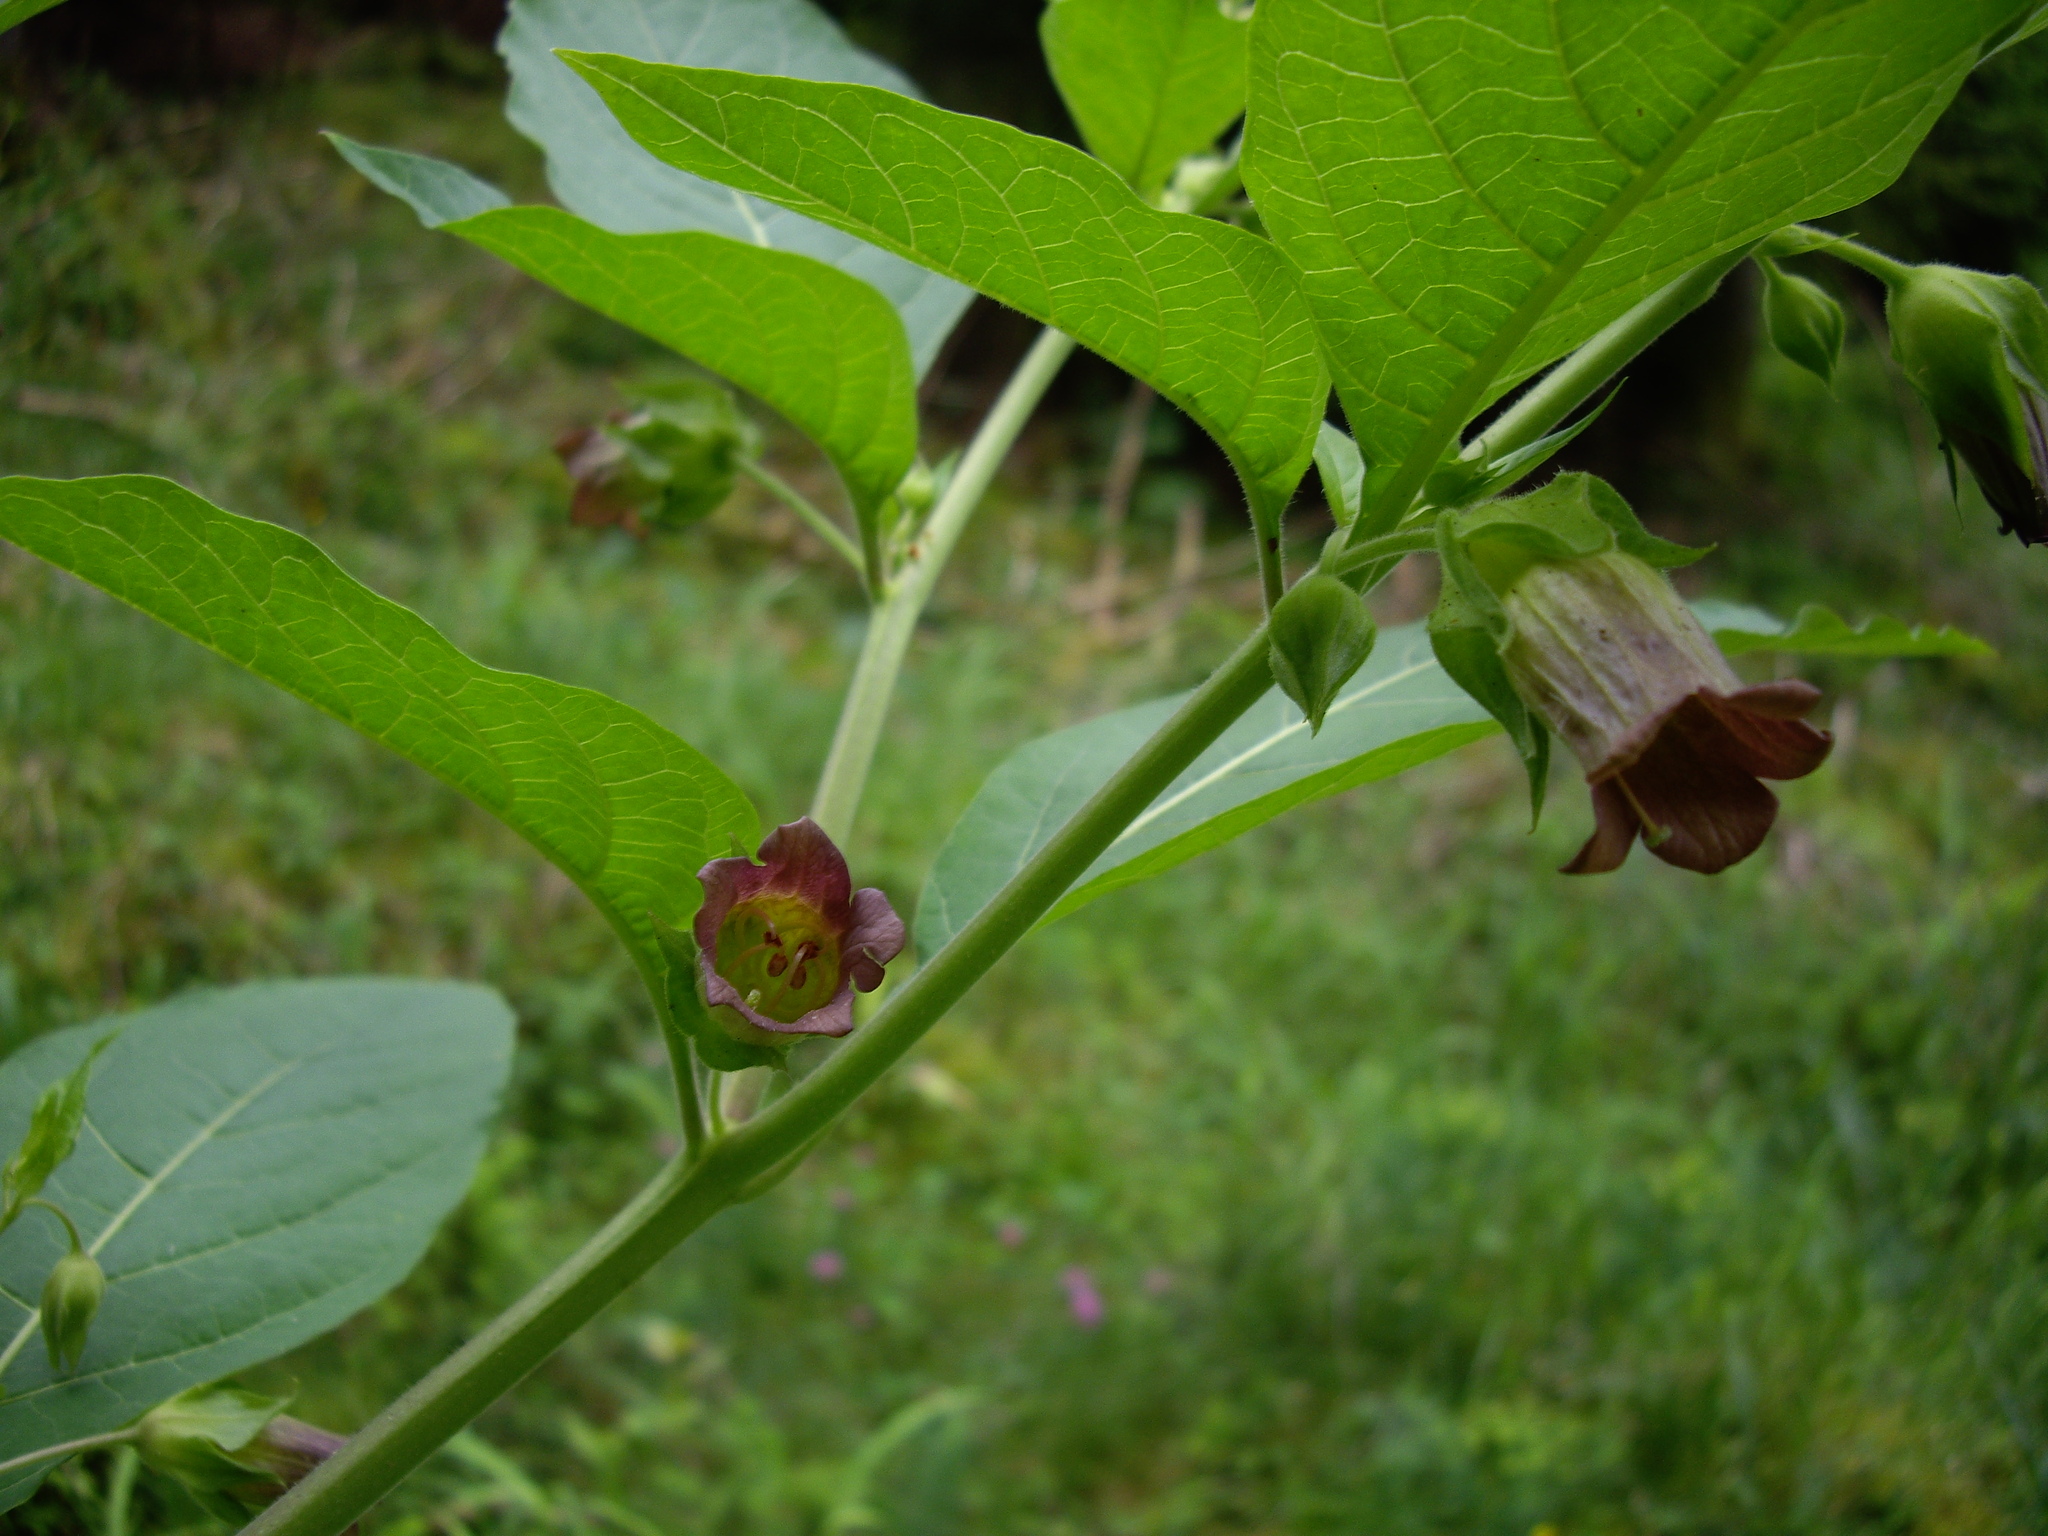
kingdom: Plantae
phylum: Tracheophyta
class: Magnoliopsida
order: Solanales
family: Solanaceae
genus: Atropa
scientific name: Atropa belladonna
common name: Deadly nightshade
